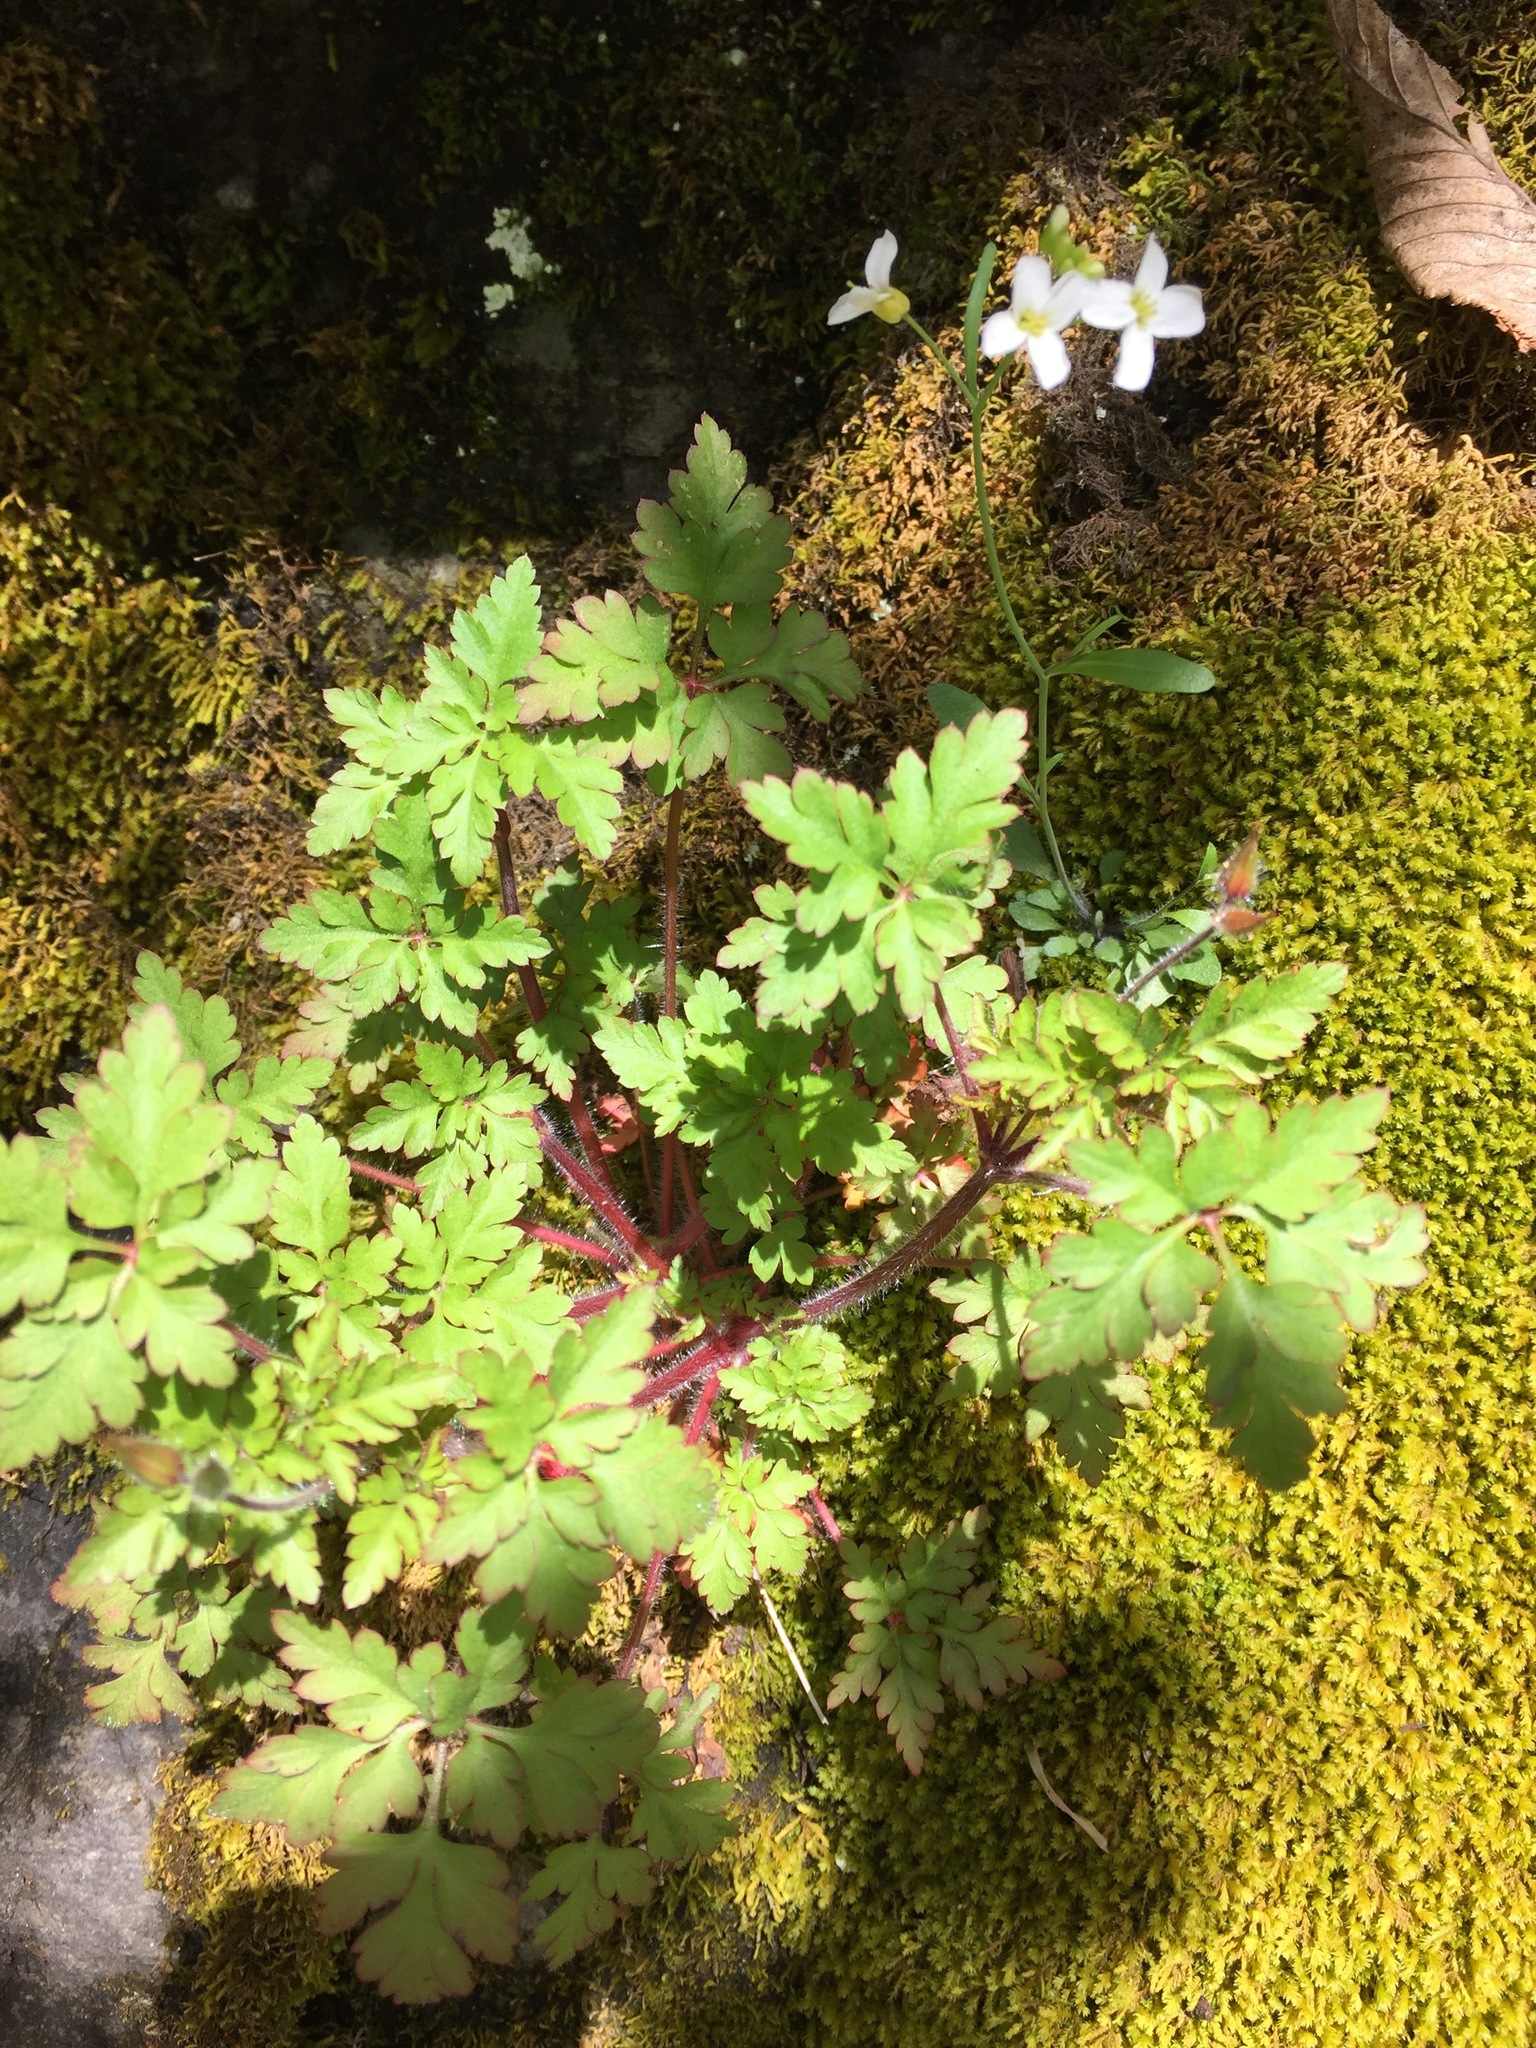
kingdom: Plantae
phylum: Tracheophyta
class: Magnoliopsida
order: Geraniales
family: Geraniaceae
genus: Geranium
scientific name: Geranium robertianum
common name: Herb-robert
